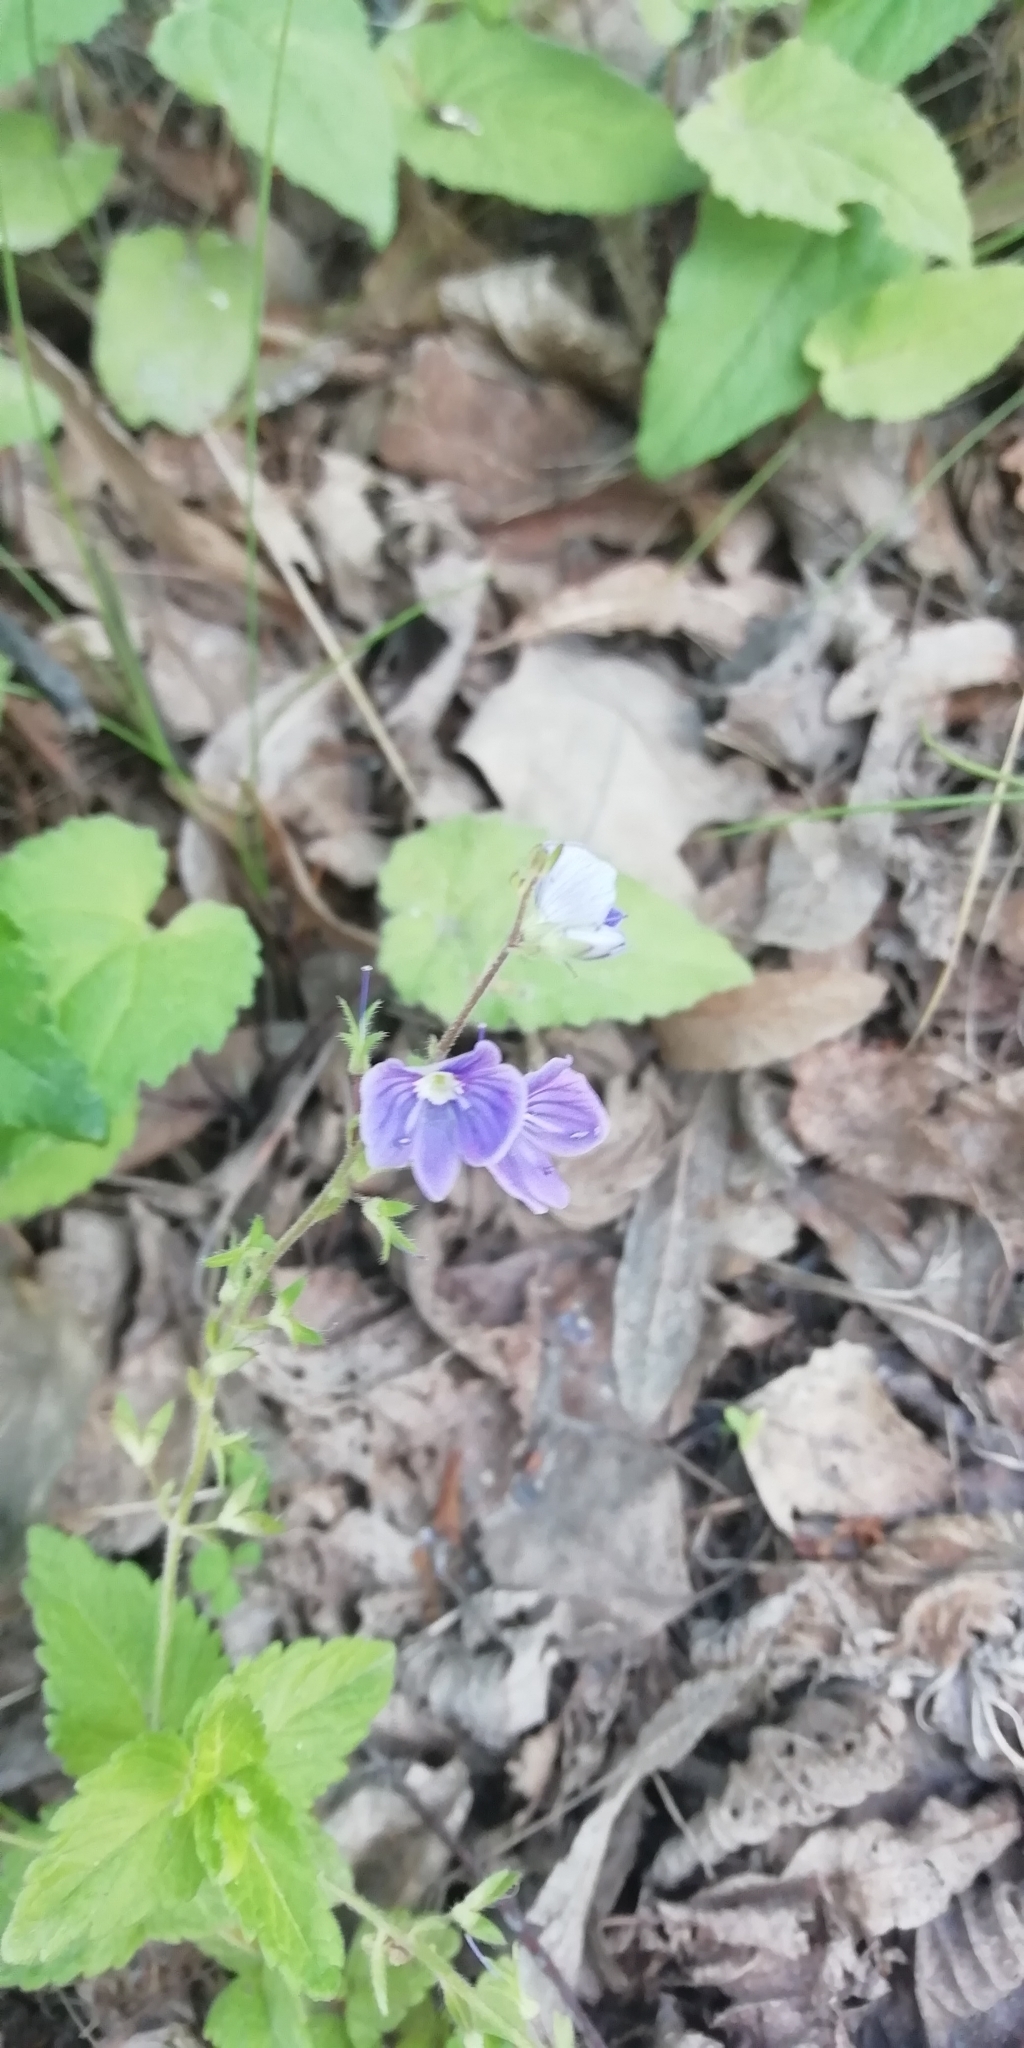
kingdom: Plantae
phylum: Tracheophyta
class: Magnoliopsida
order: Lamiales
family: Plantaginaceae
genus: Veronica
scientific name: Veronica chamaedrys
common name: Germander speedwell
